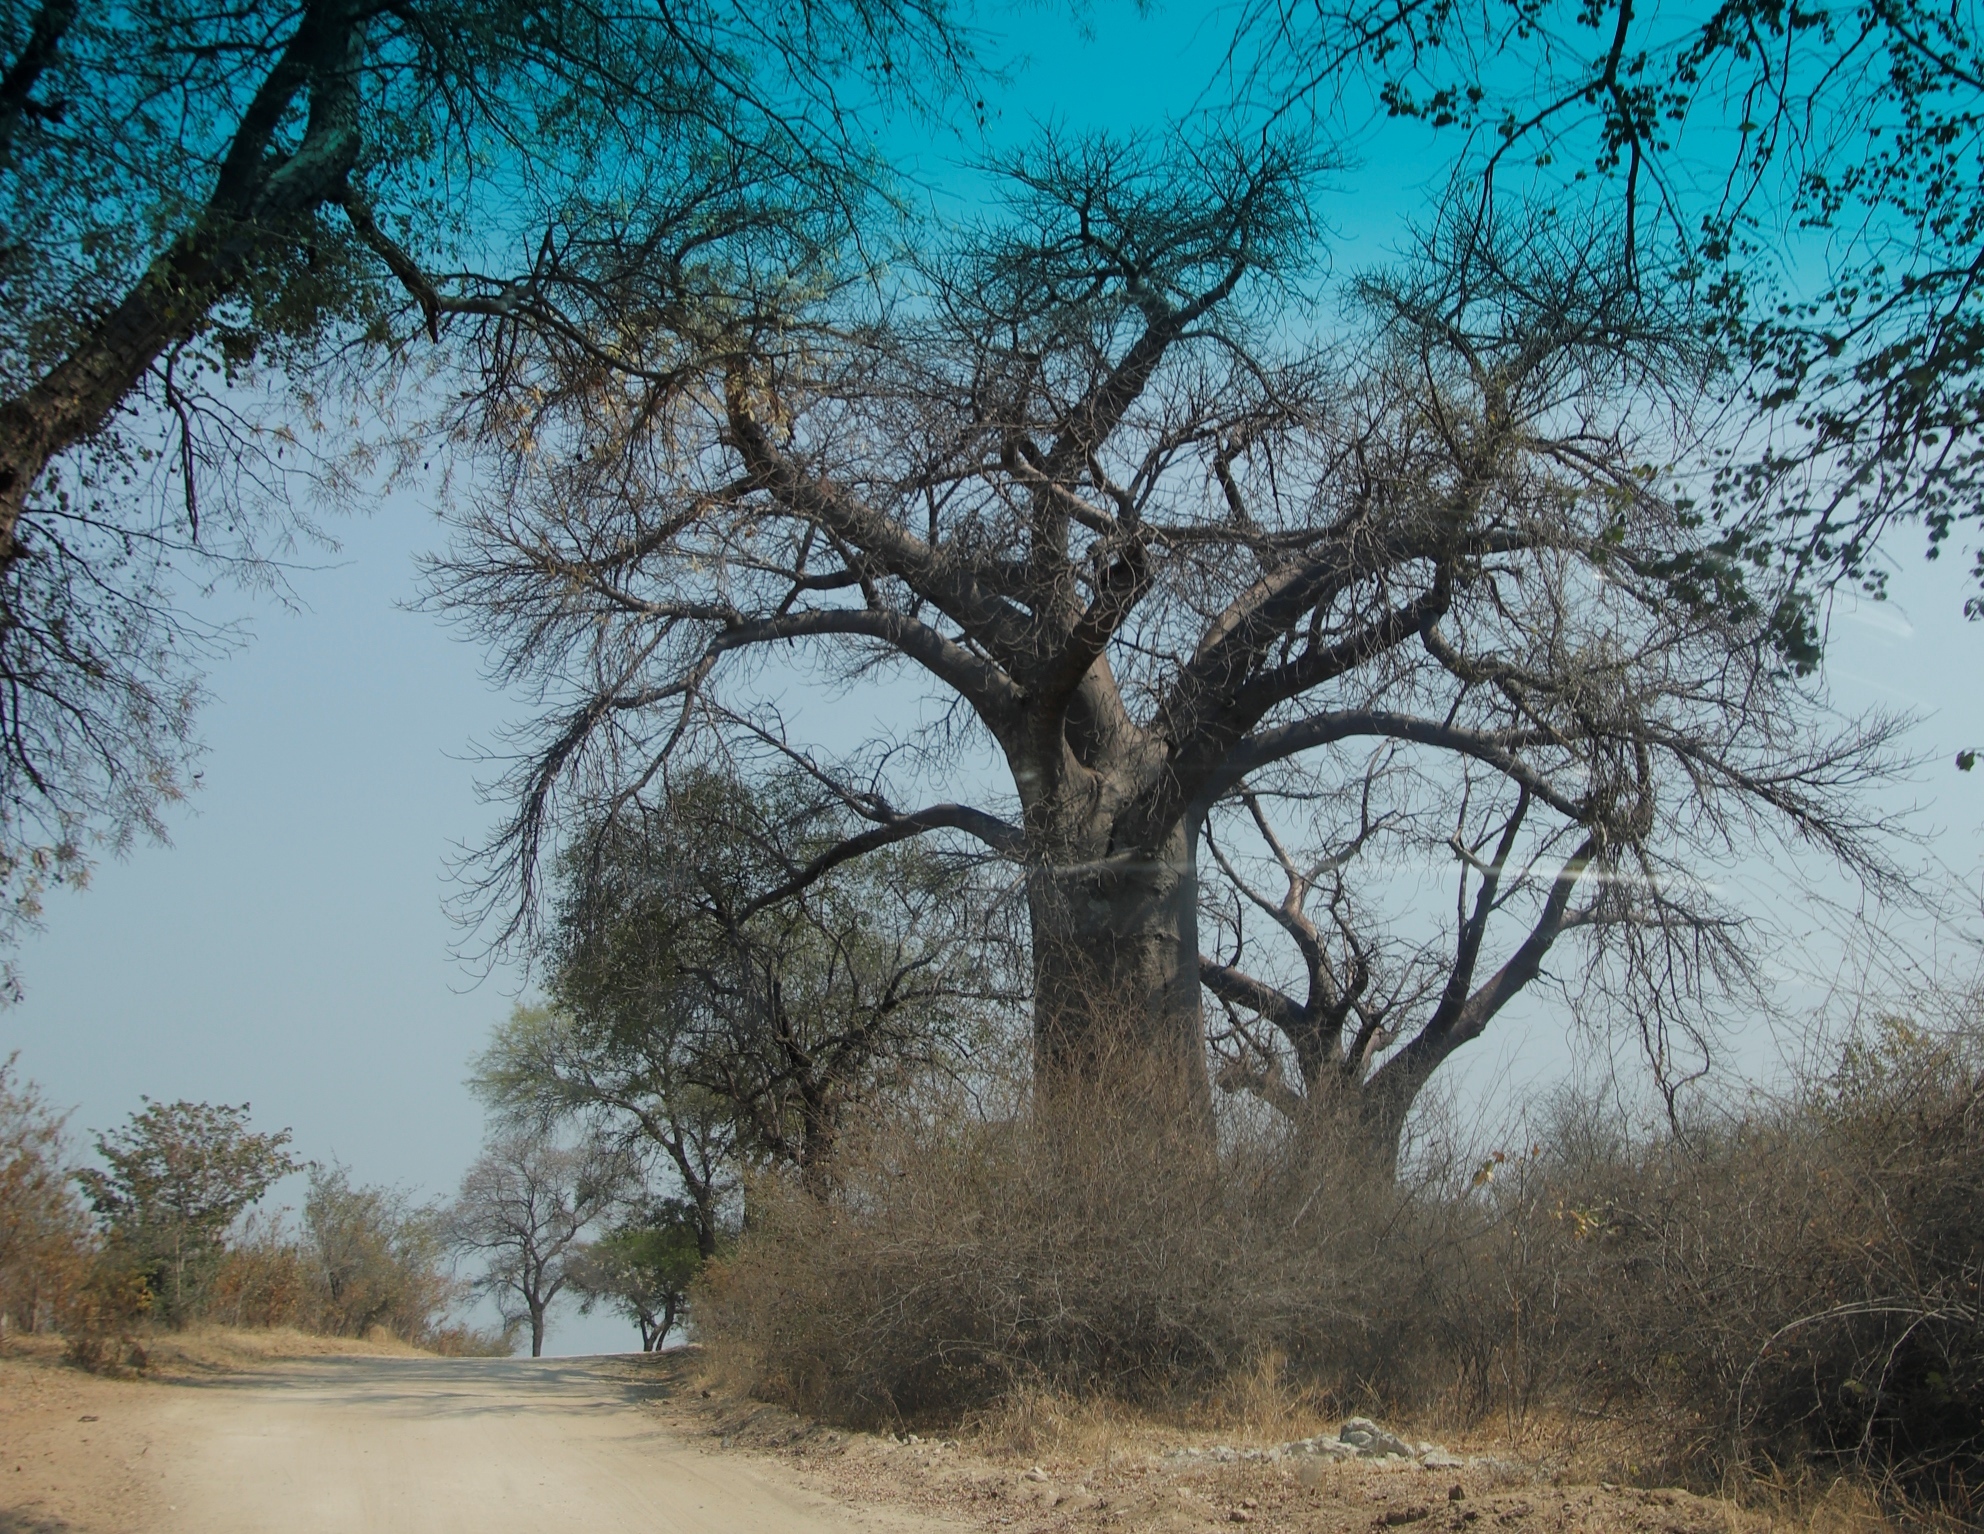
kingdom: Plantae
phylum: Tracheophyta
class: Magnoliopsida
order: Malvales
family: Malvaceae
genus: Adansonia
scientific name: Adansonia digitata
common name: Dead-rat-tree
